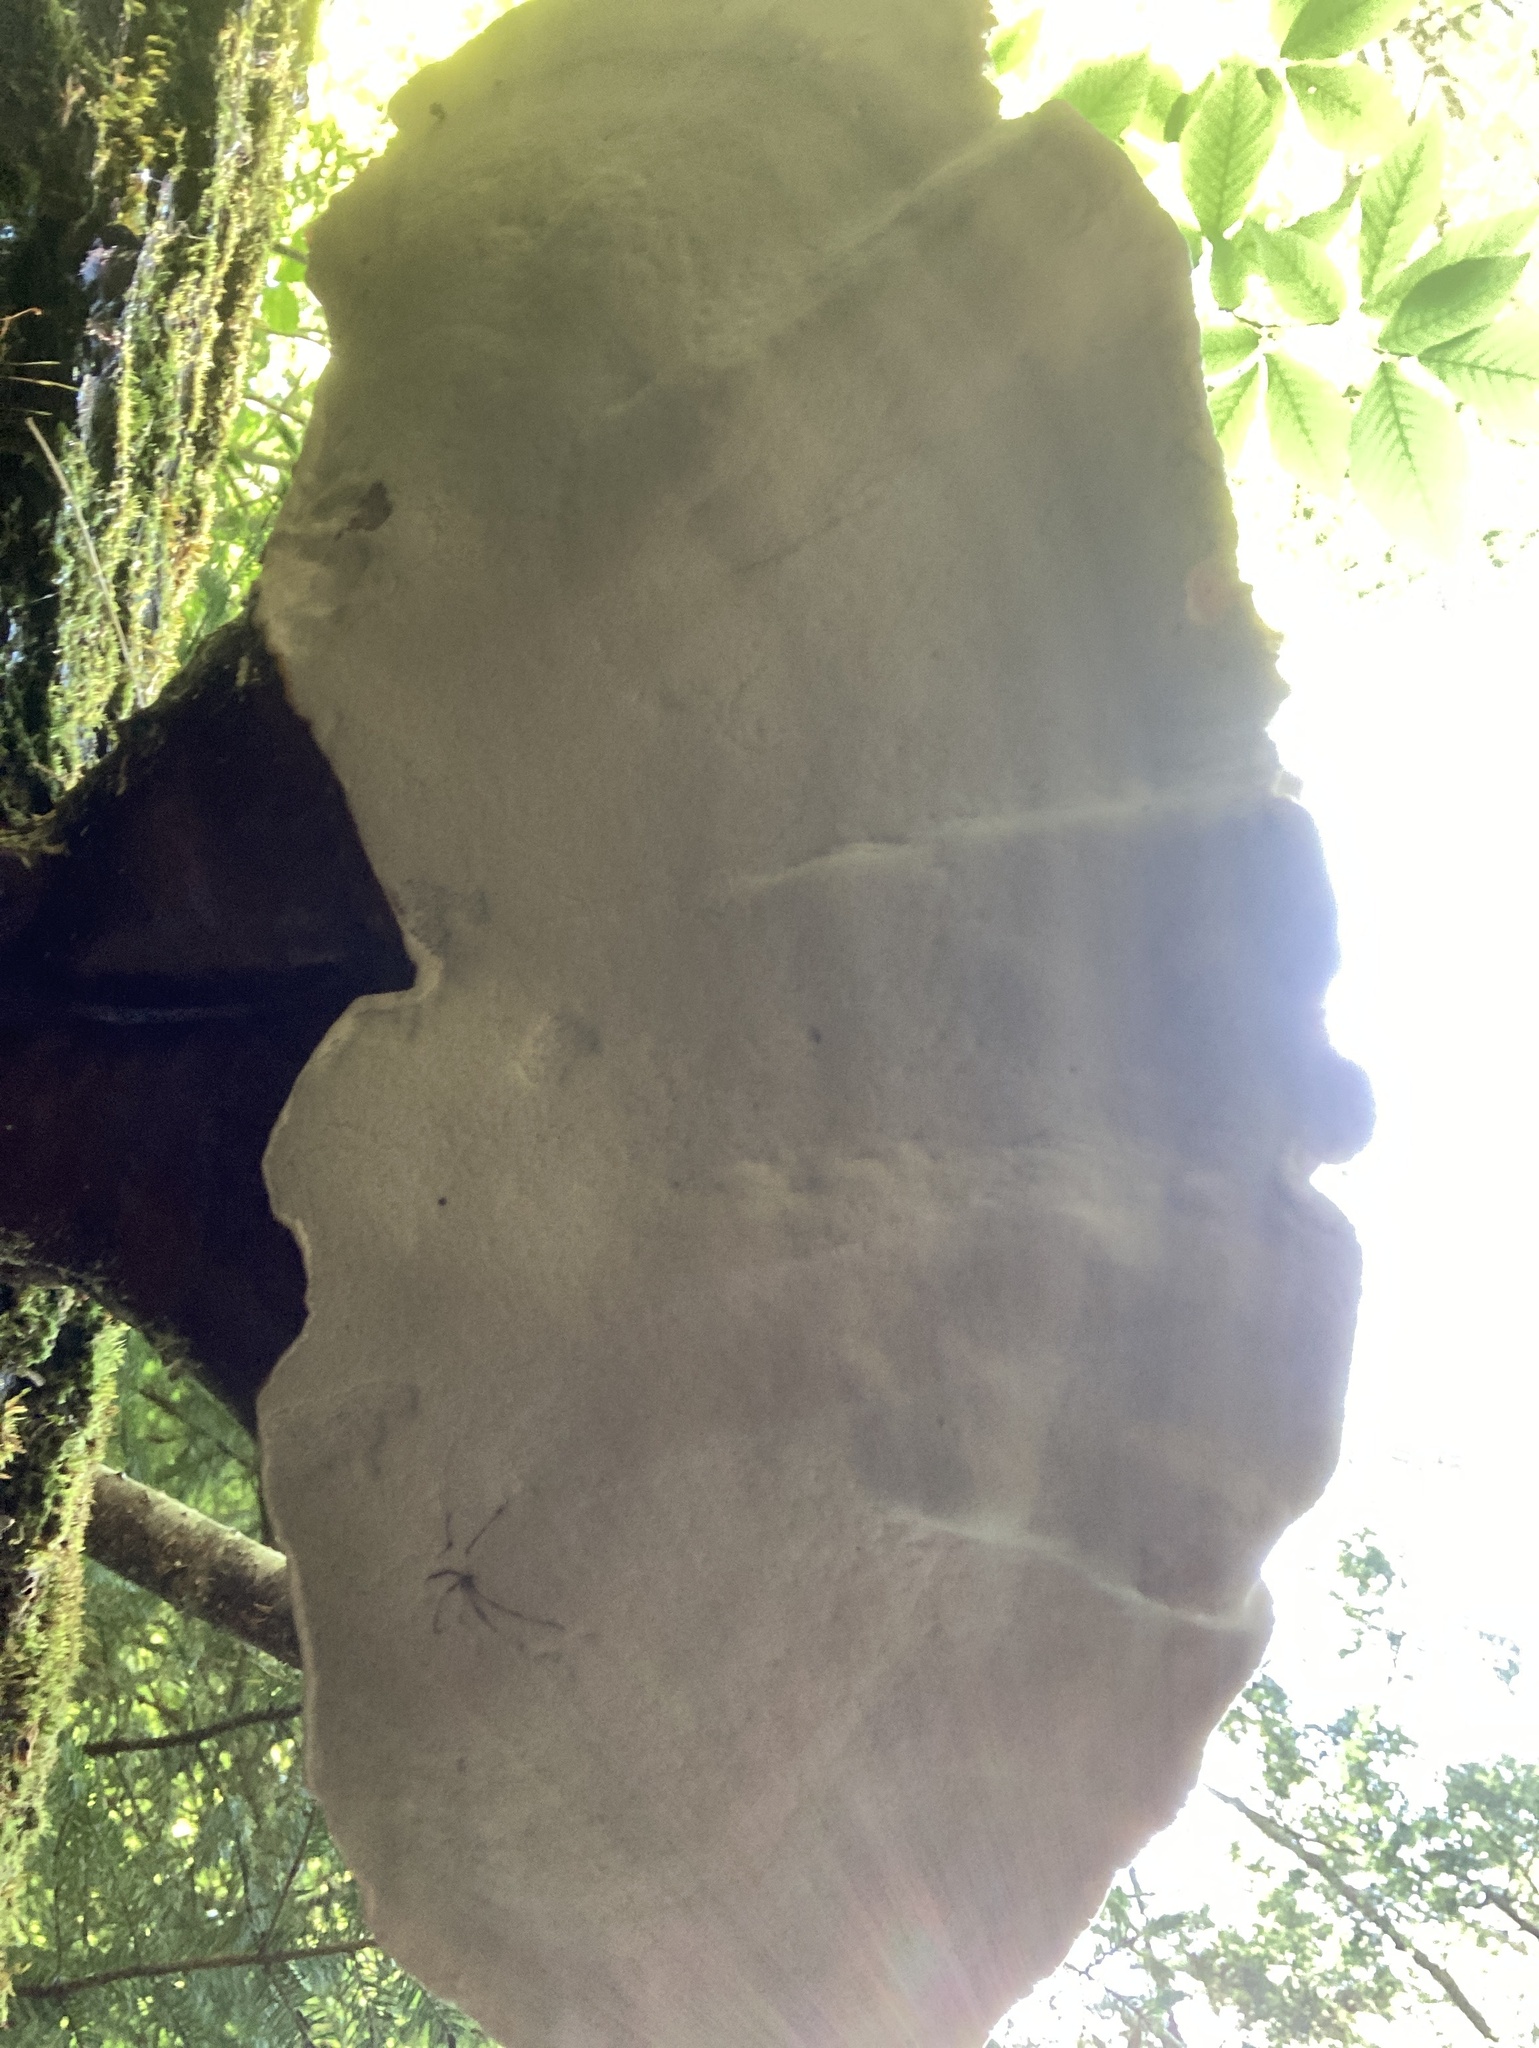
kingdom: Fungi
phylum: Basidiomycota
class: Agaricomycetes
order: Polyporales
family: Polyporaceae
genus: Ganoderma
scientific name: Ganoderma tsugae
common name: Hemlock varnish shelf
